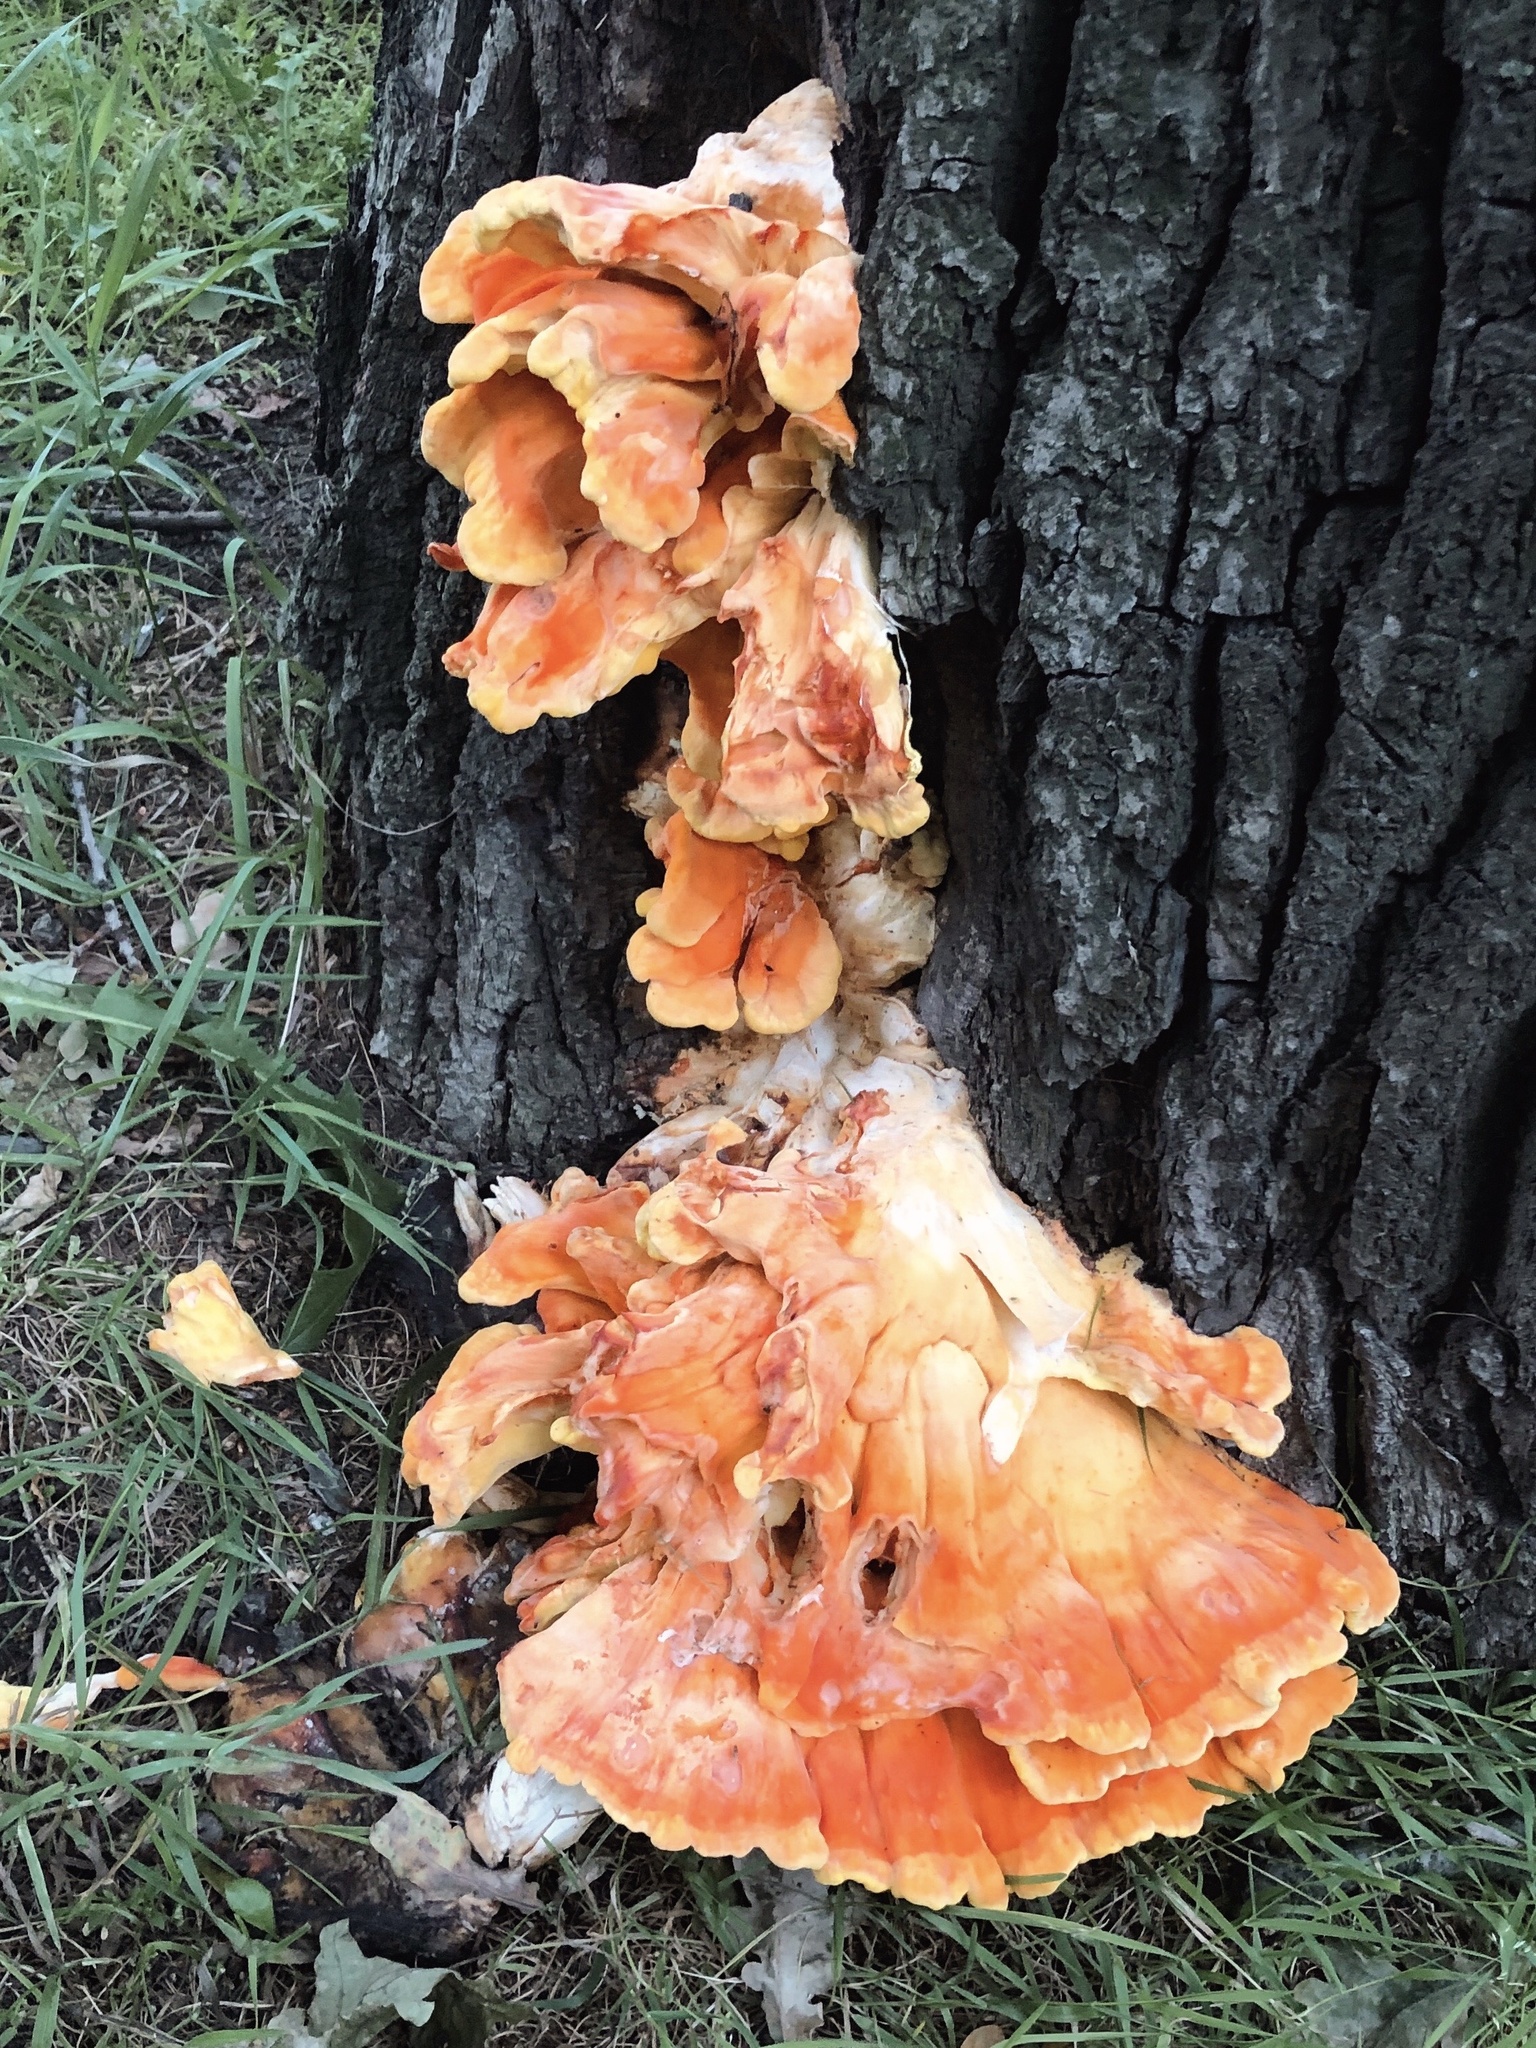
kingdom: Fungi
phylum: Basidiomycota
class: Agaricomycetes
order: Polyporales
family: Laetiporaceae
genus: Laetiporus
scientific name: Laetiporus sulphureus
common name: Chicken of the woods
